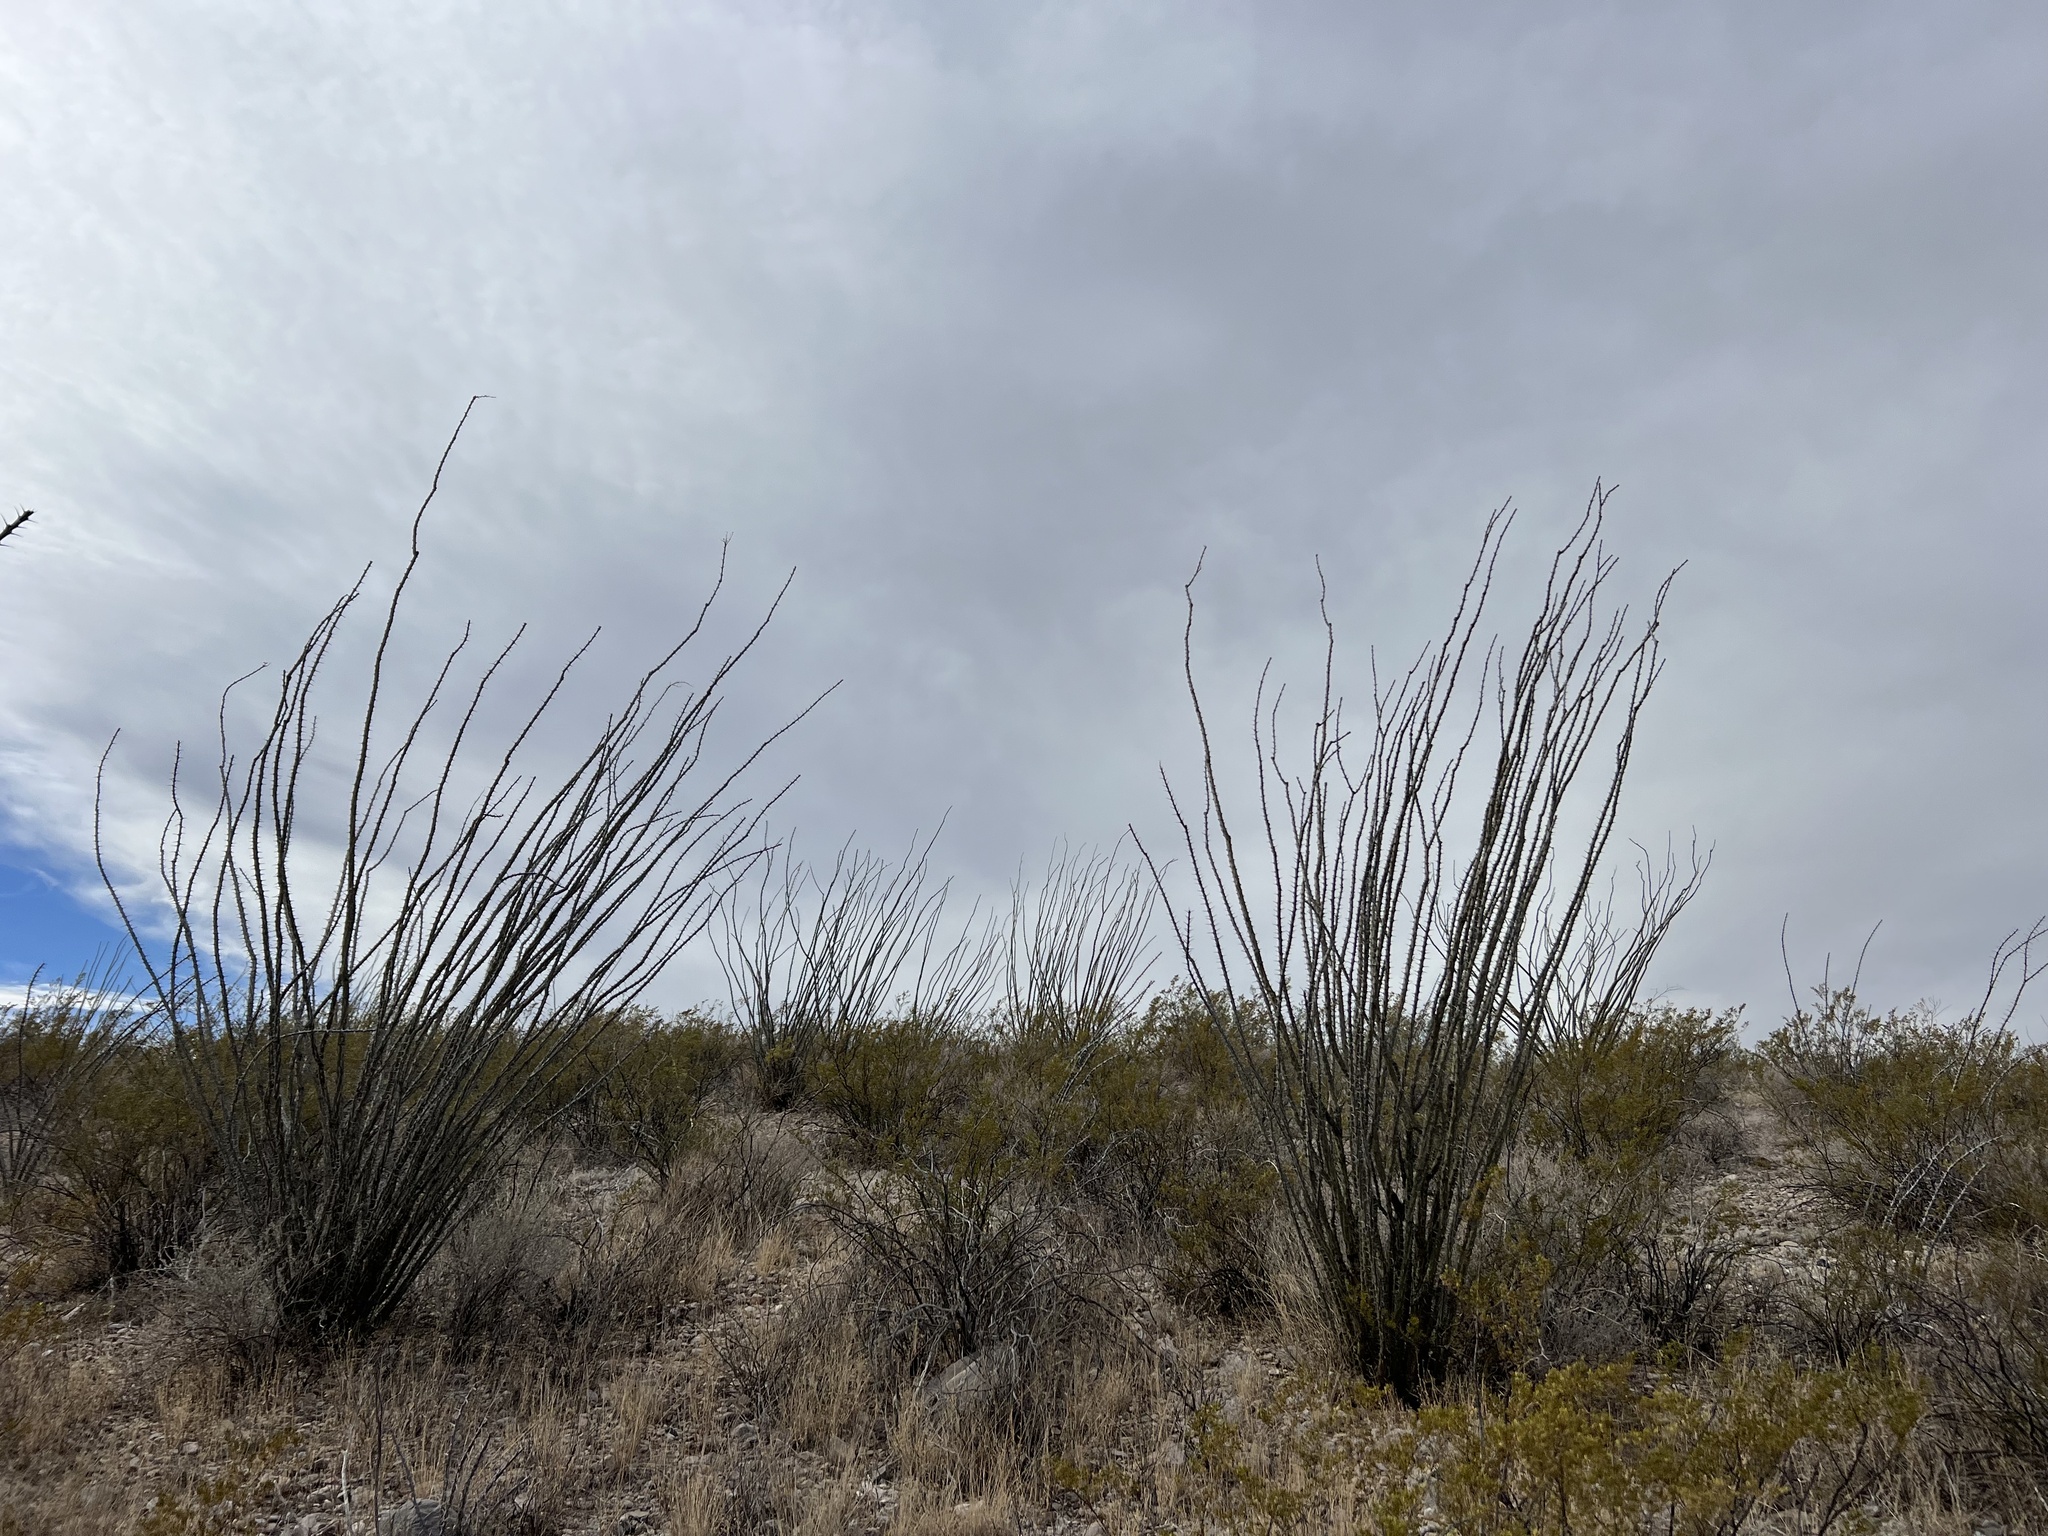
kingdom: Plantae
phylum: Tracheophyta
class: Magnoliopsida
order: Ericales
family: Fouquieriaceae
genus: Fouquieria
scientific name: Fouquieria splendens
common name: Vine-cactus
